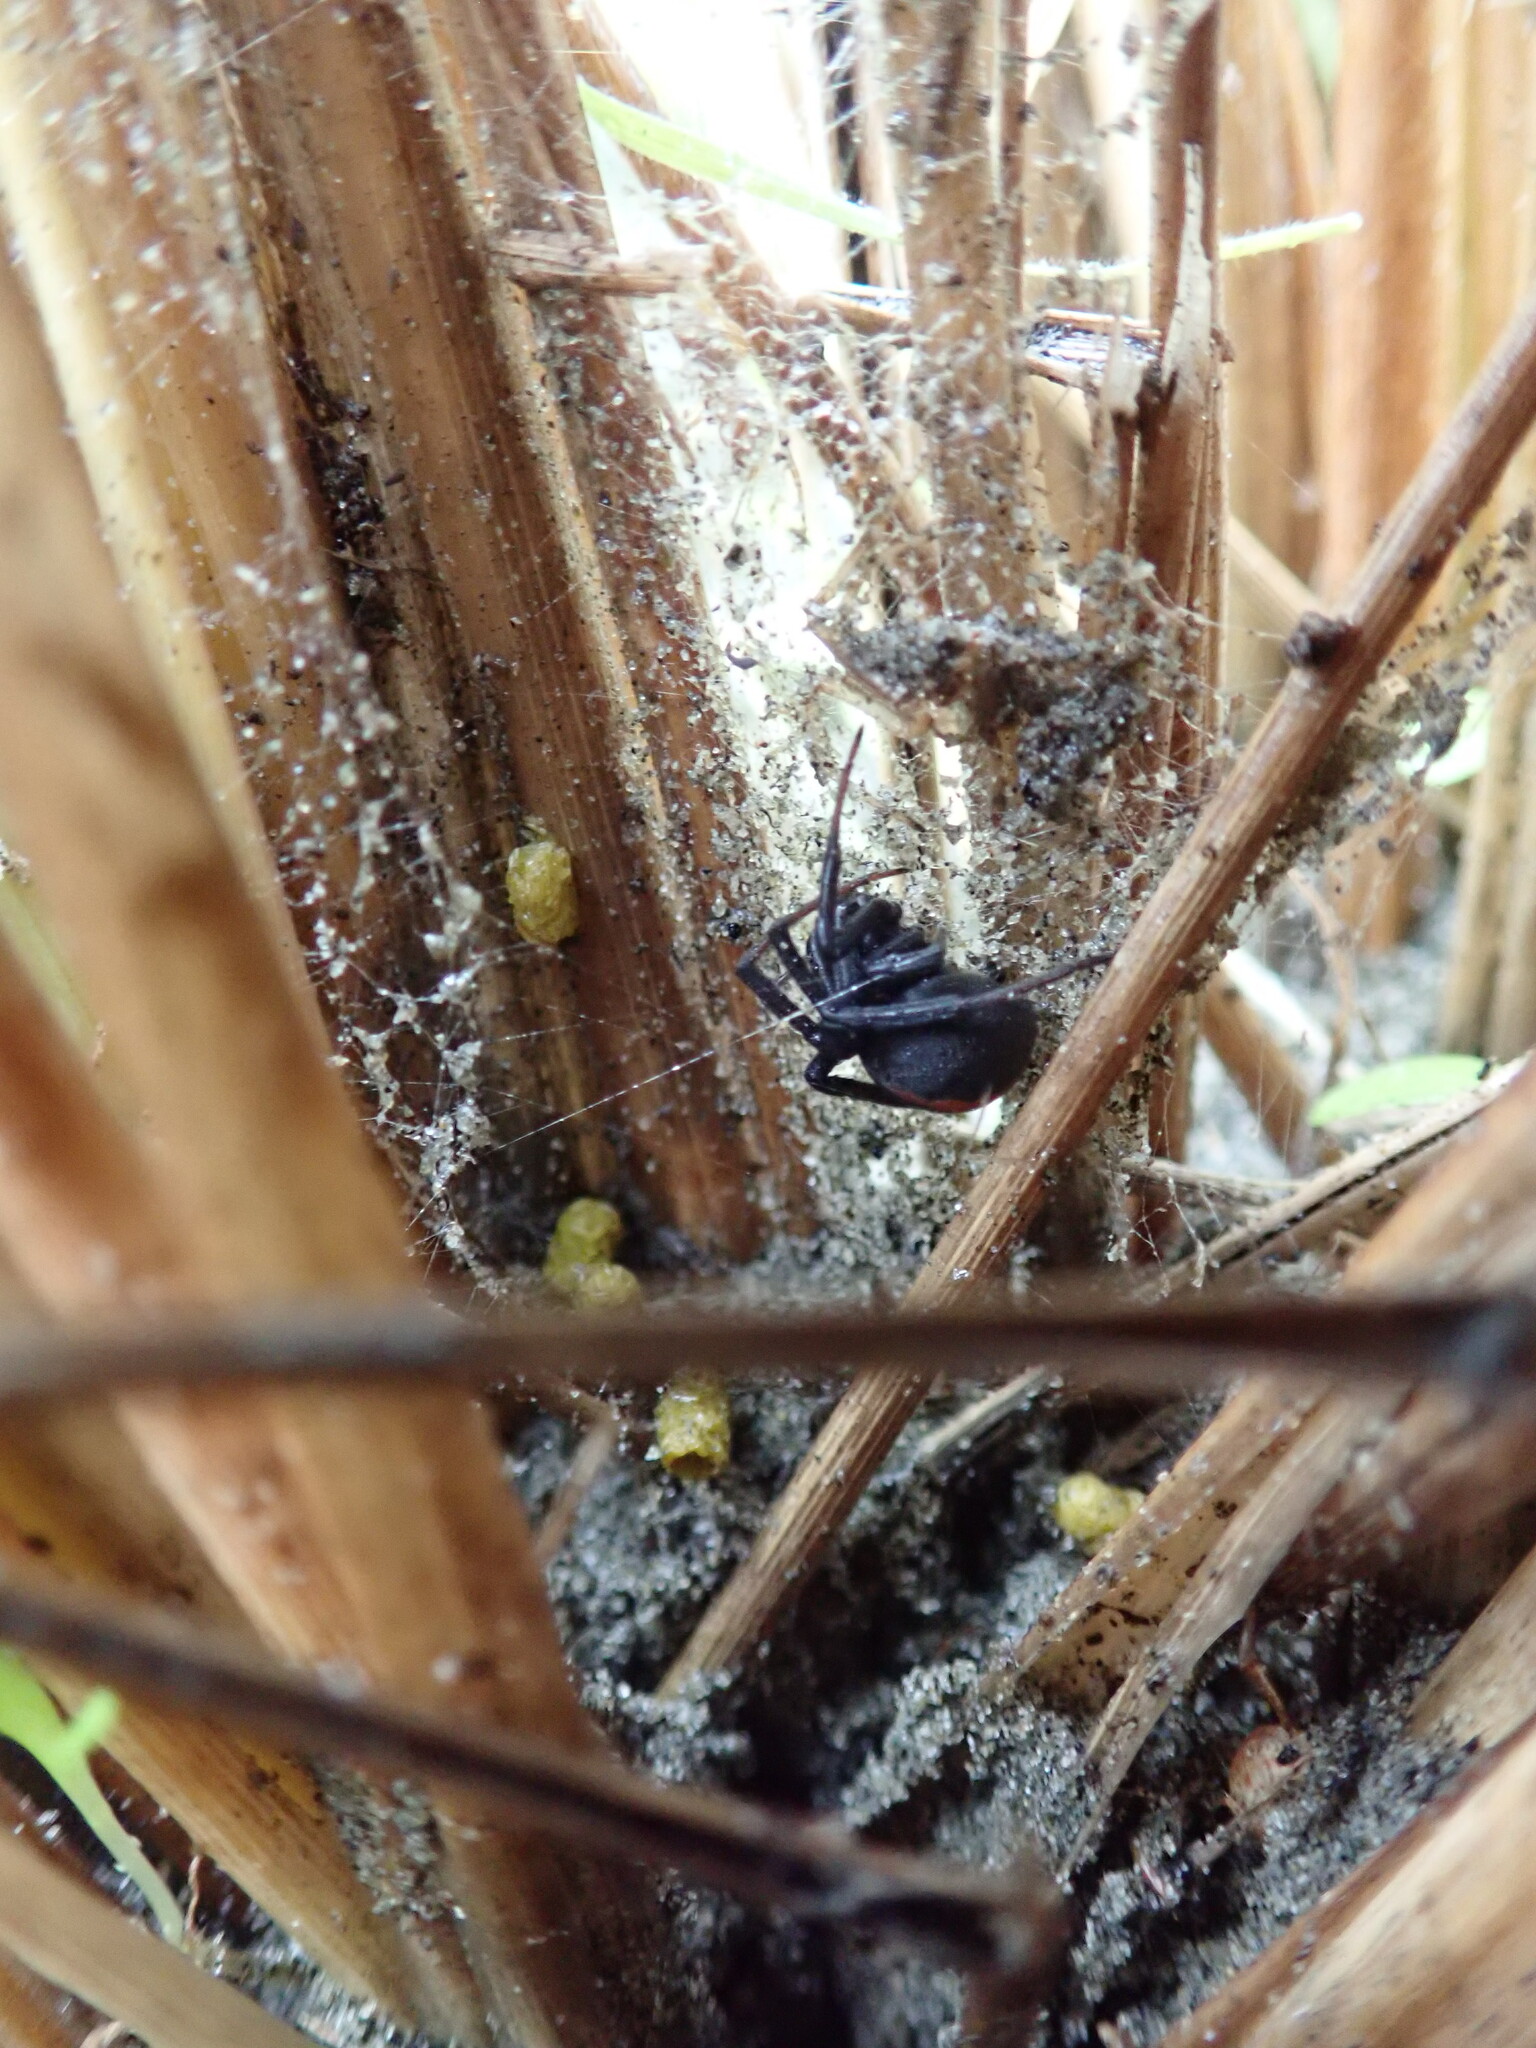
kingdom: Animalia
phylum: Arthropoda
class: Arachnida
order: Araneae
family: Theridiidae
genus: Latrodectus
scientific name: Latrodectus katipo
